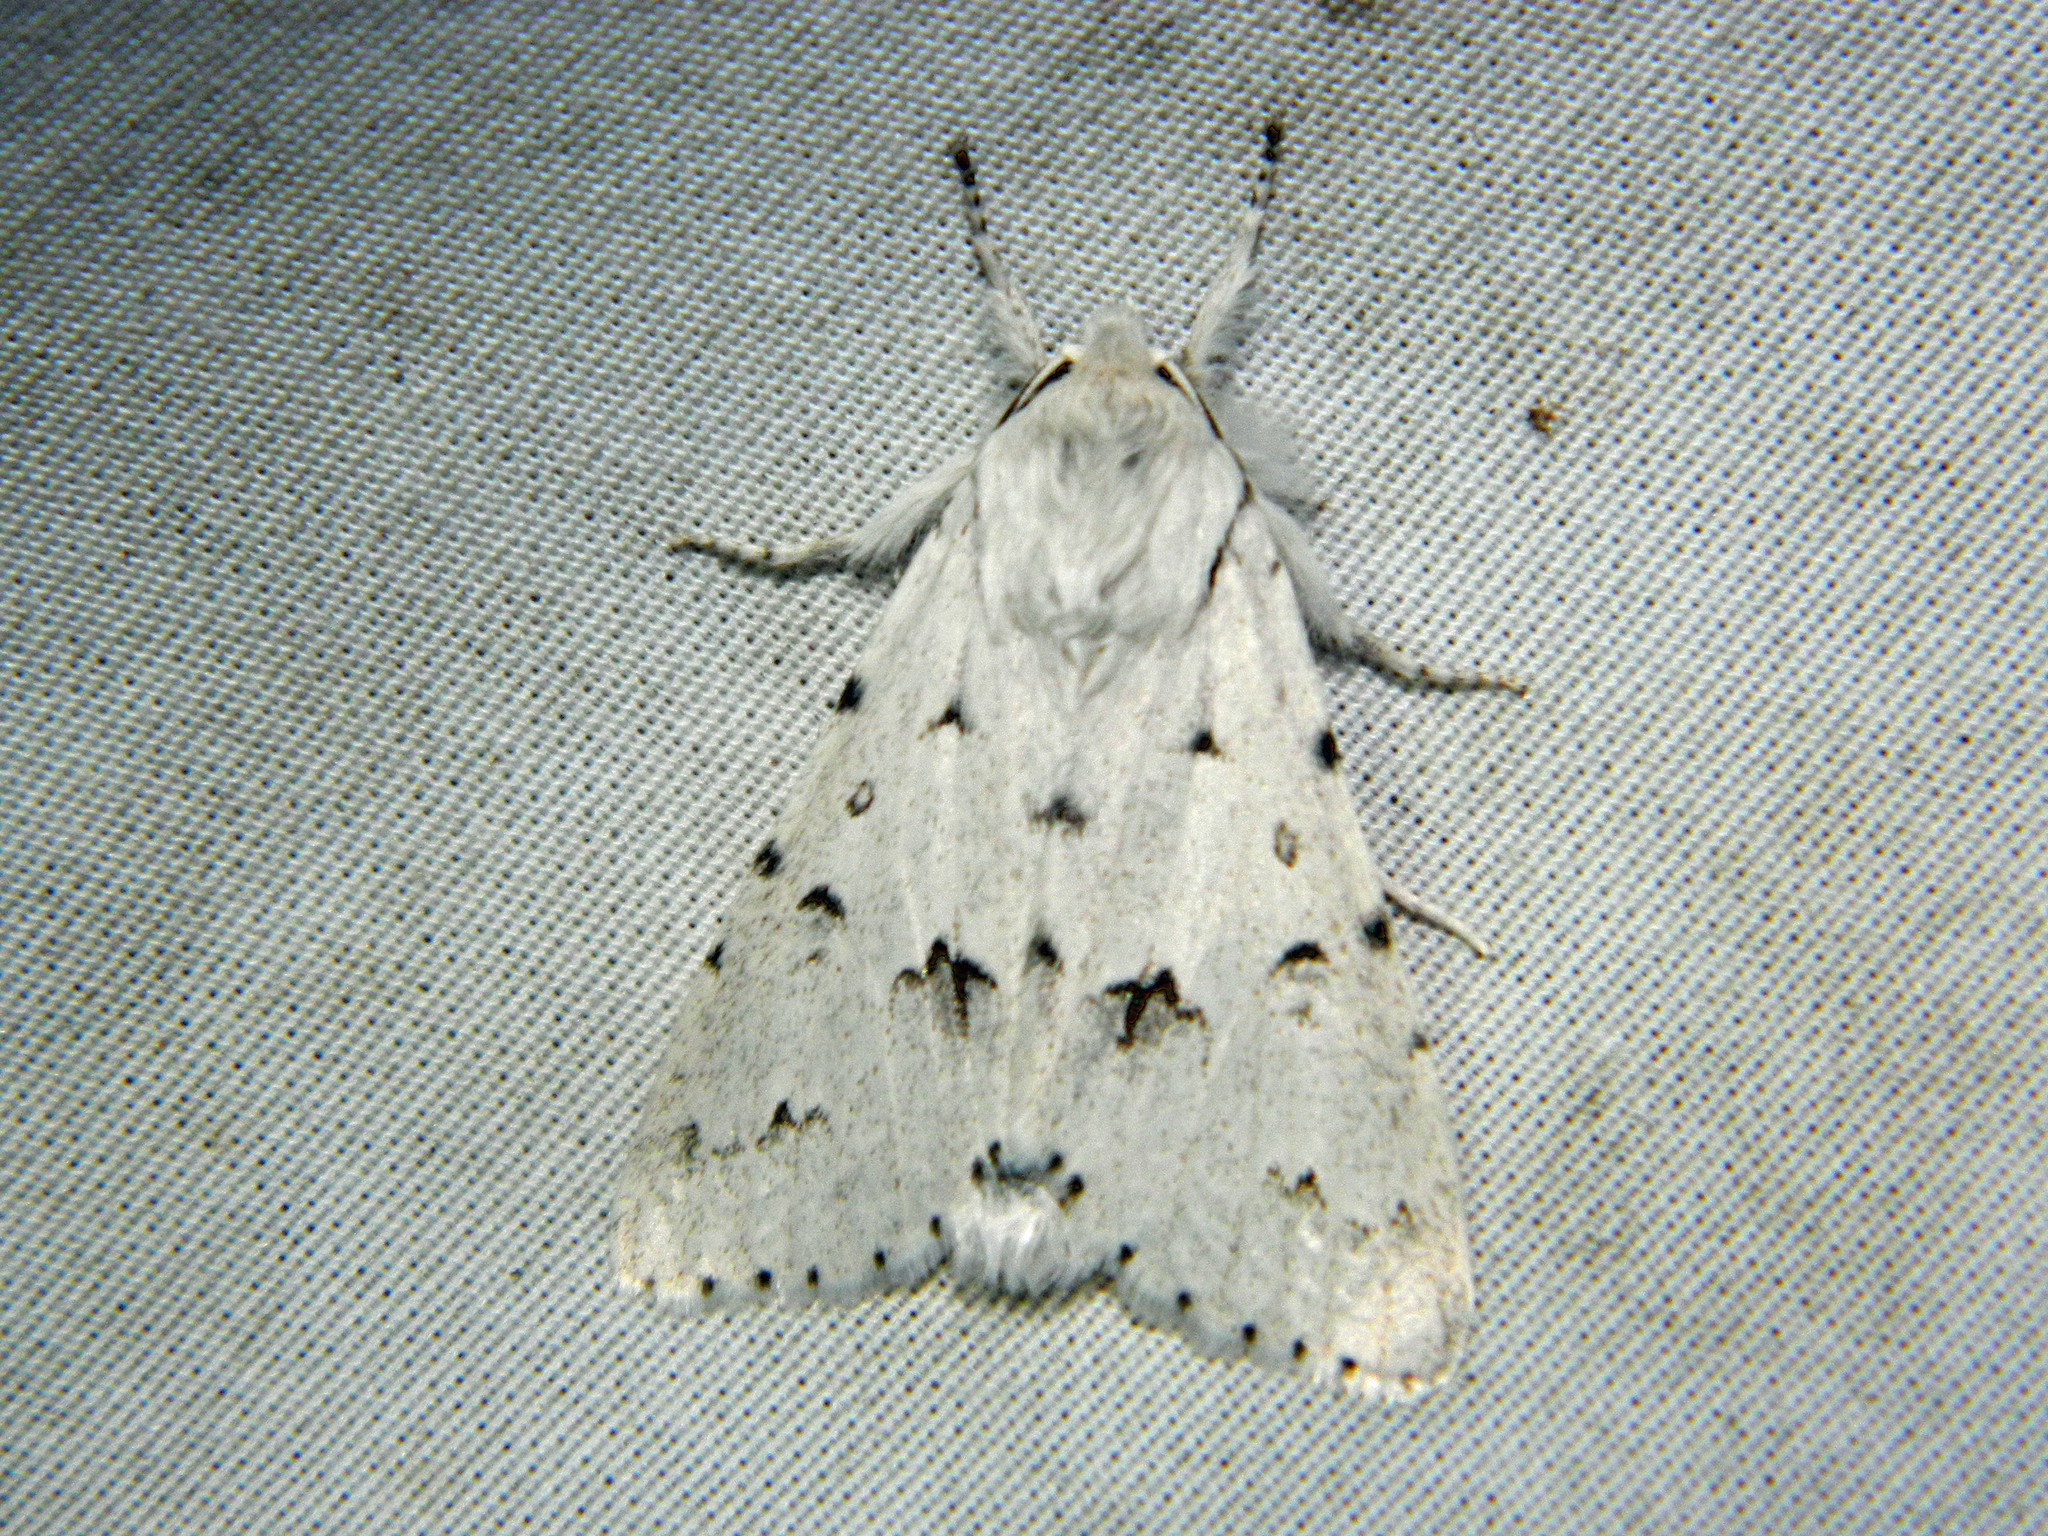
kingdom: Animalia
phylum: Arthropoda
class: Insecta
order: Lepidoptera
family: Noctuidae
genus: Acronicta
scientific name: Acronicta vulpina
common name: Miller dagger
